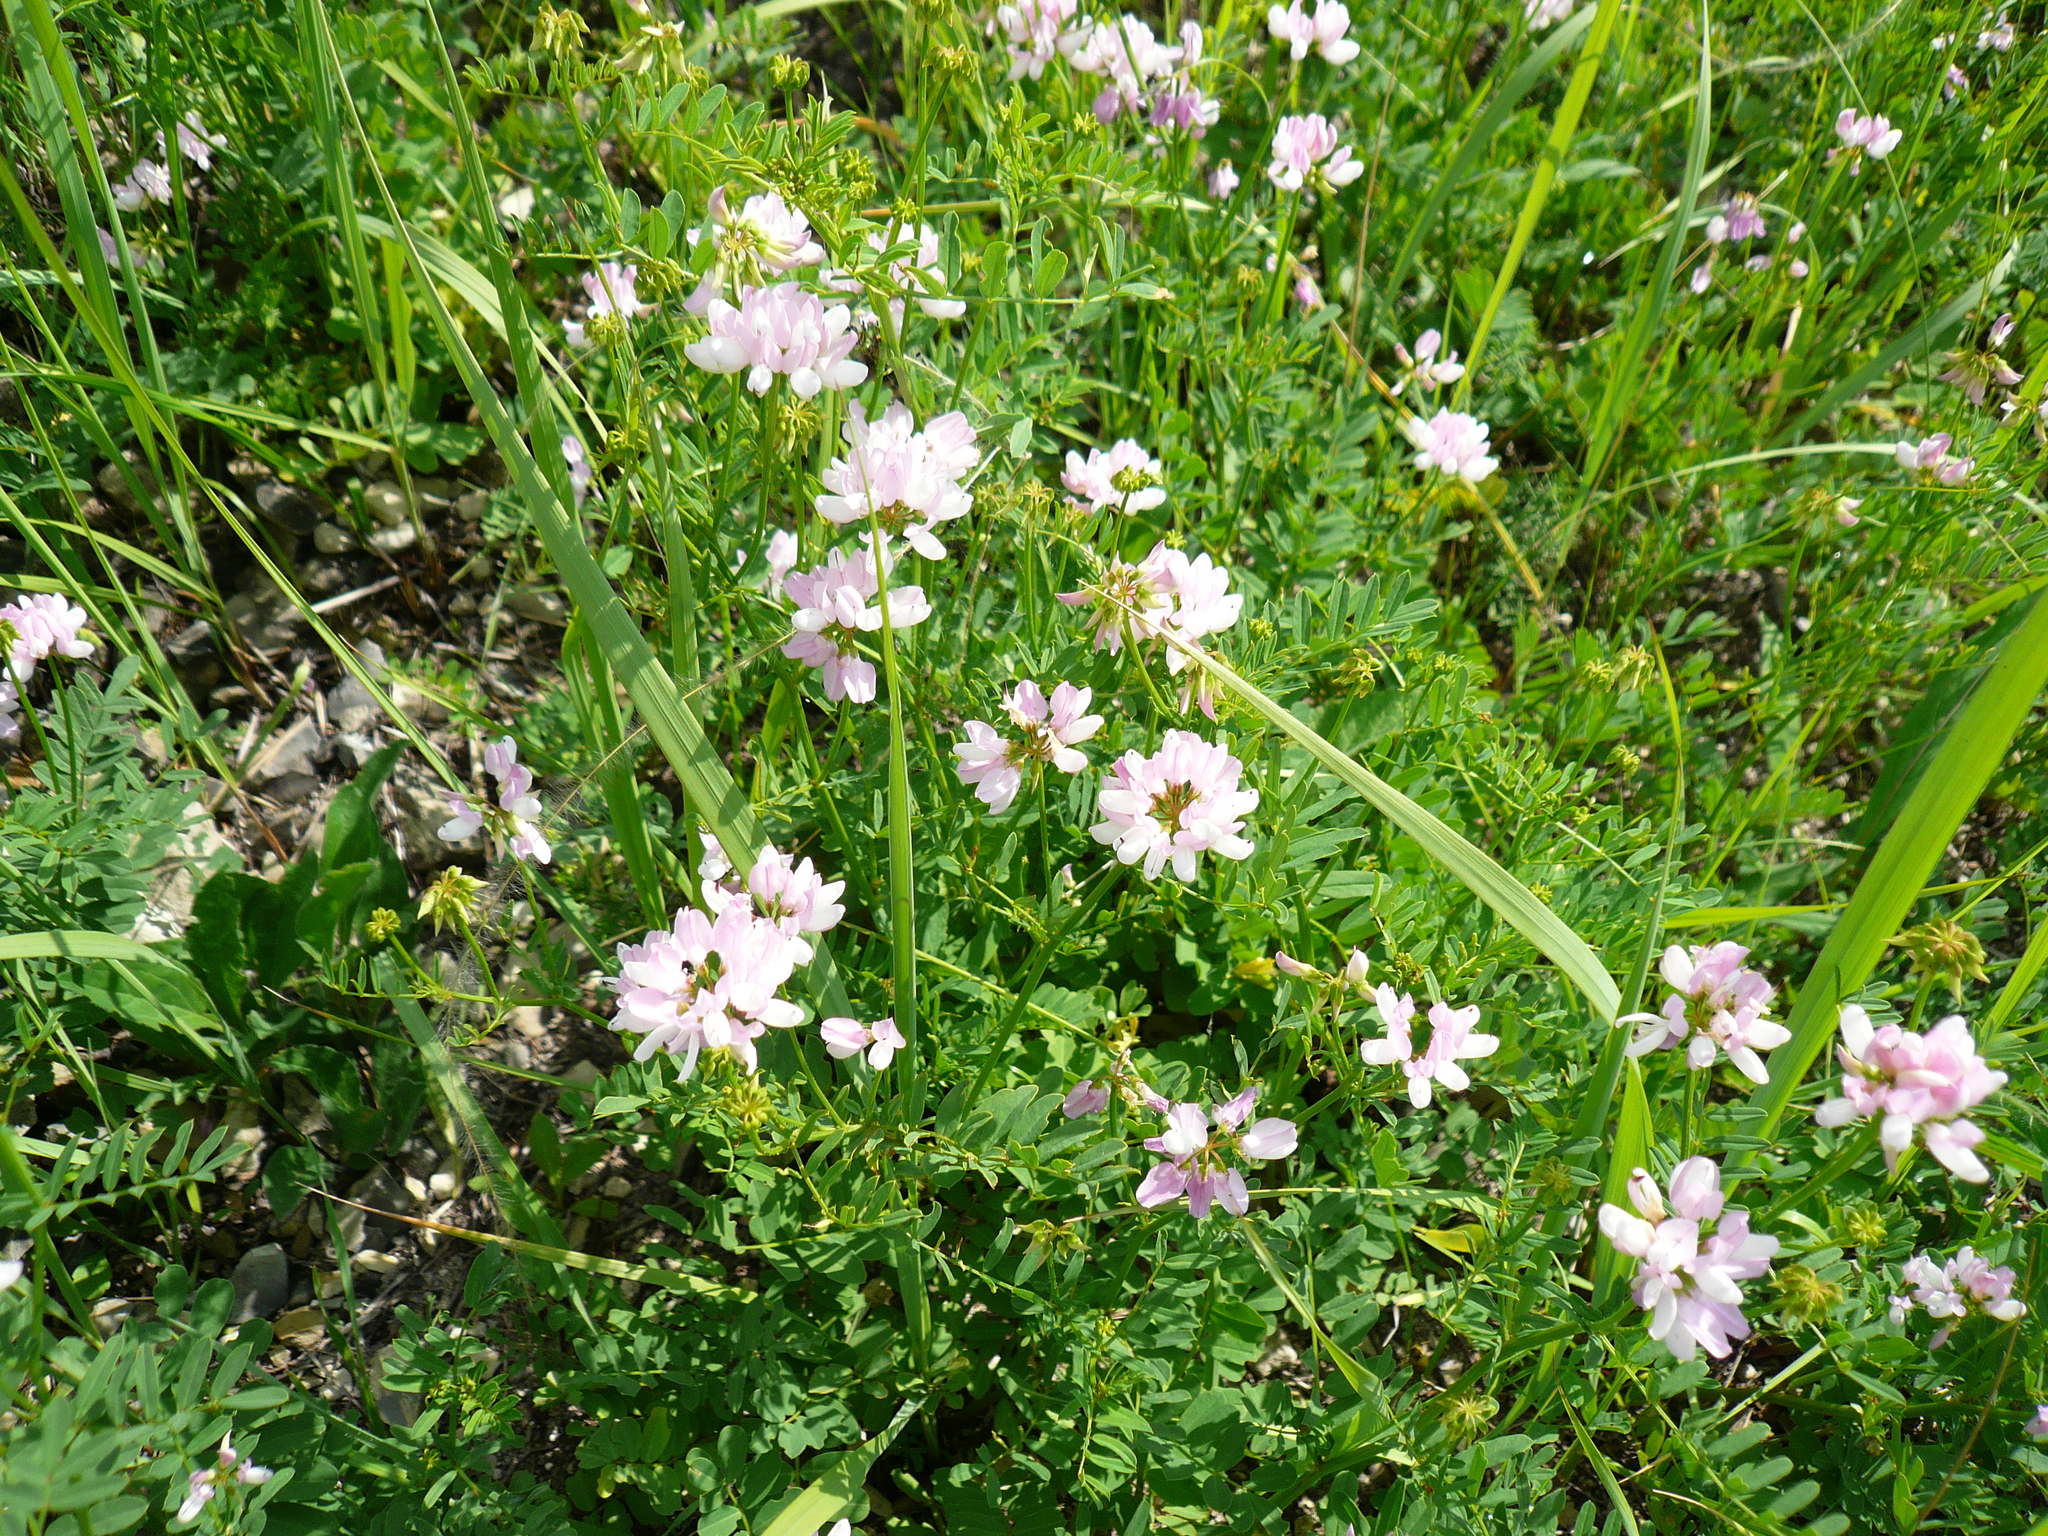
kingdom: Plantae
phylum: Tracheophyta
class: Magnoliopsida
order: Fabales
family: Fabaceae
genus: Coronilla
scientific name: Coronilla varia
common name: Crownvetch
